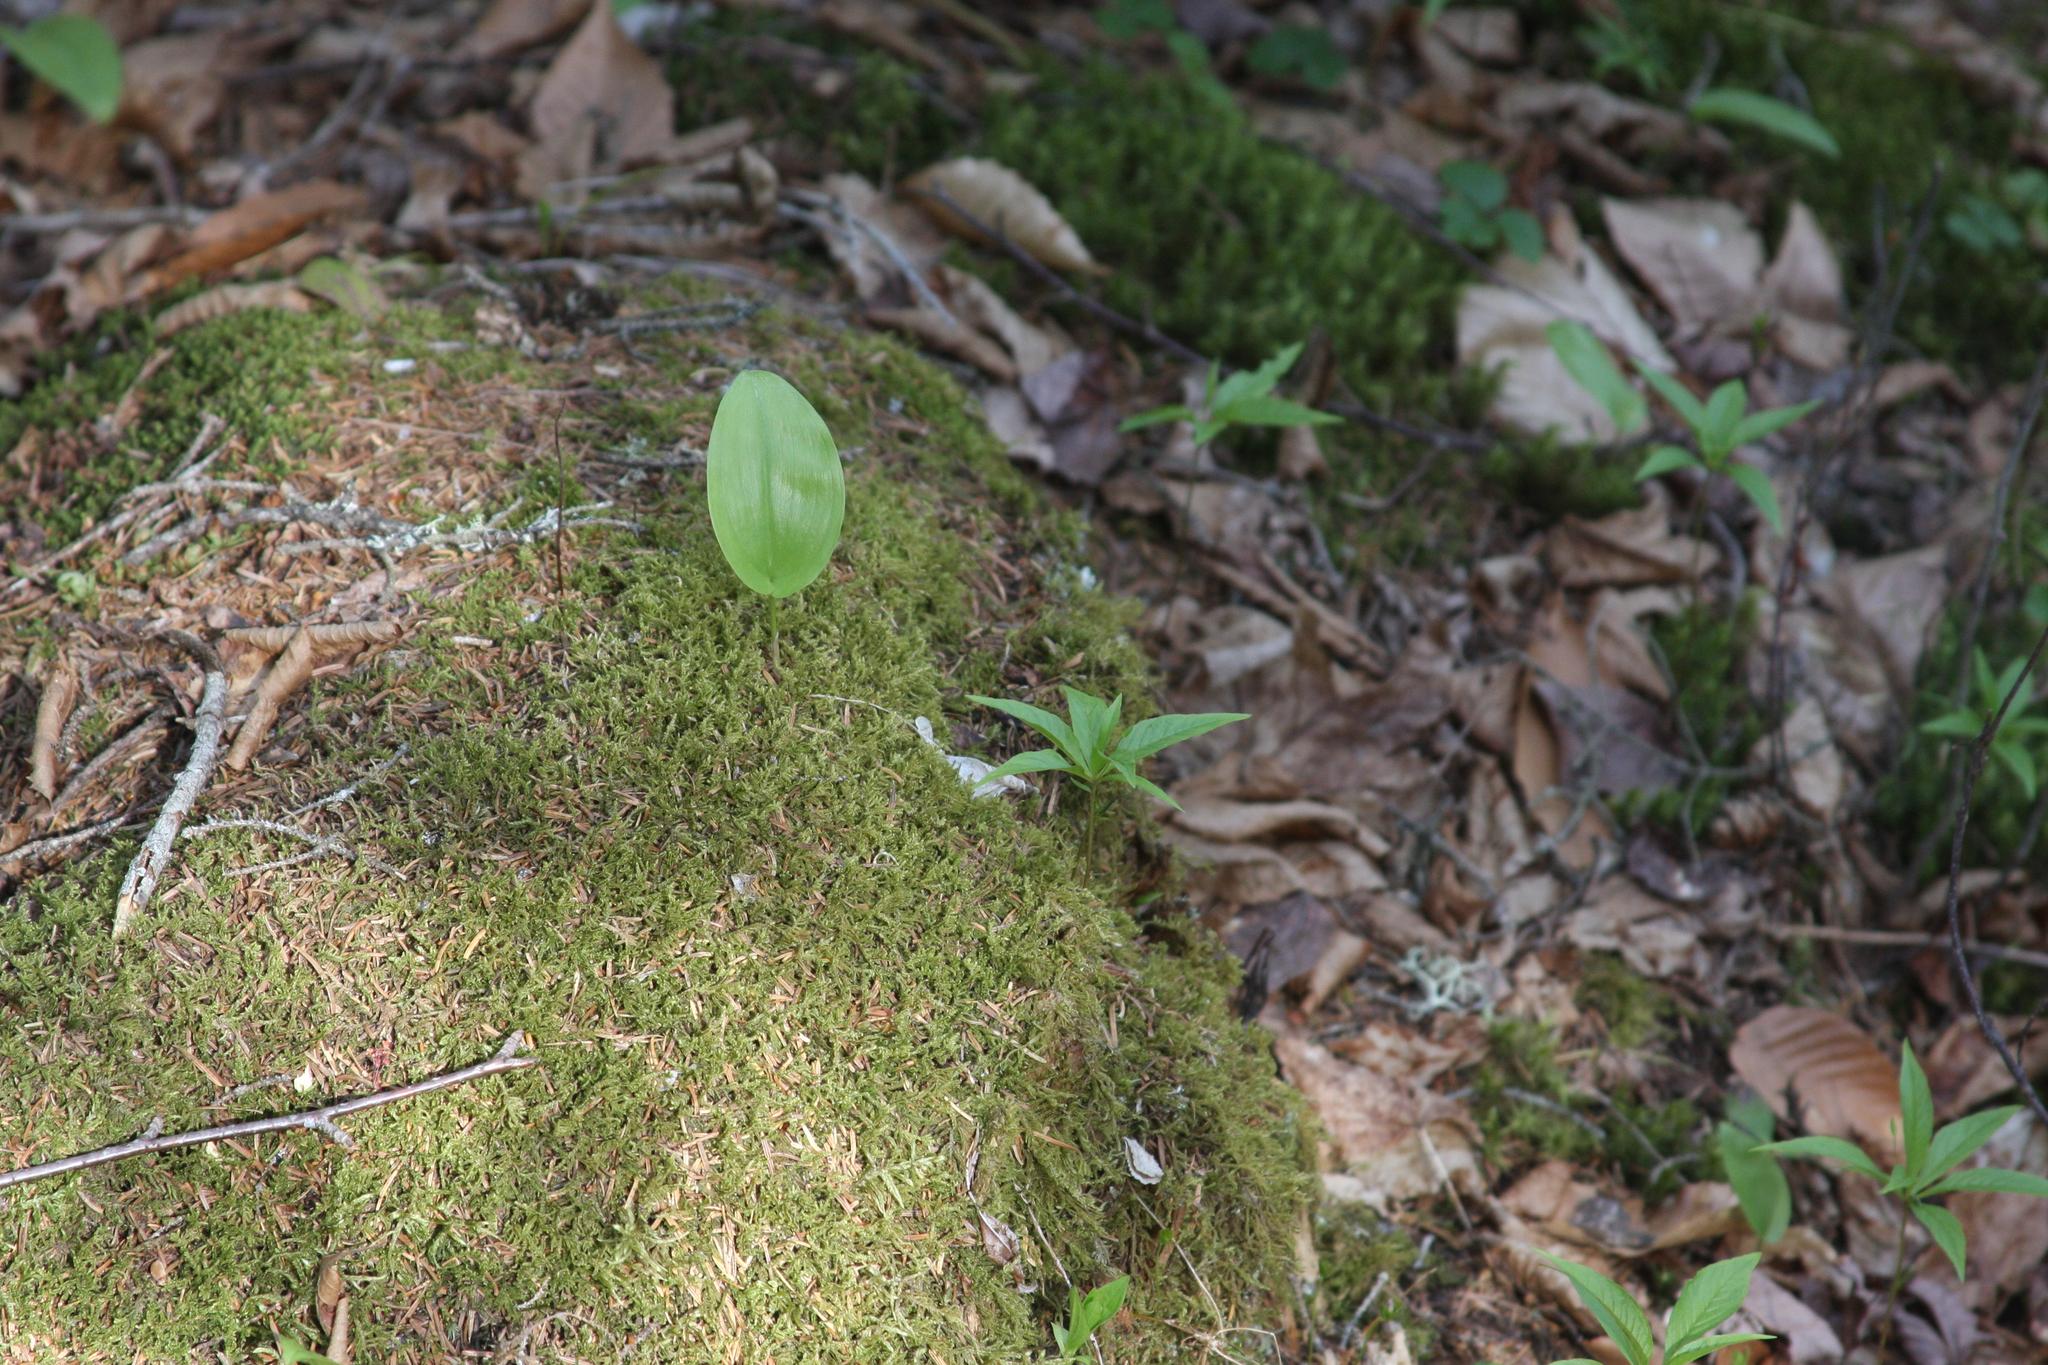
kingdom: Plantae
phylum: Tracheophyta
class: Liliopsida
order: Asparagales
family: Asparagaceae
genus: Maianthemum
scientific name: Maianthemum canadense
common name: False lily-of-the-valley
